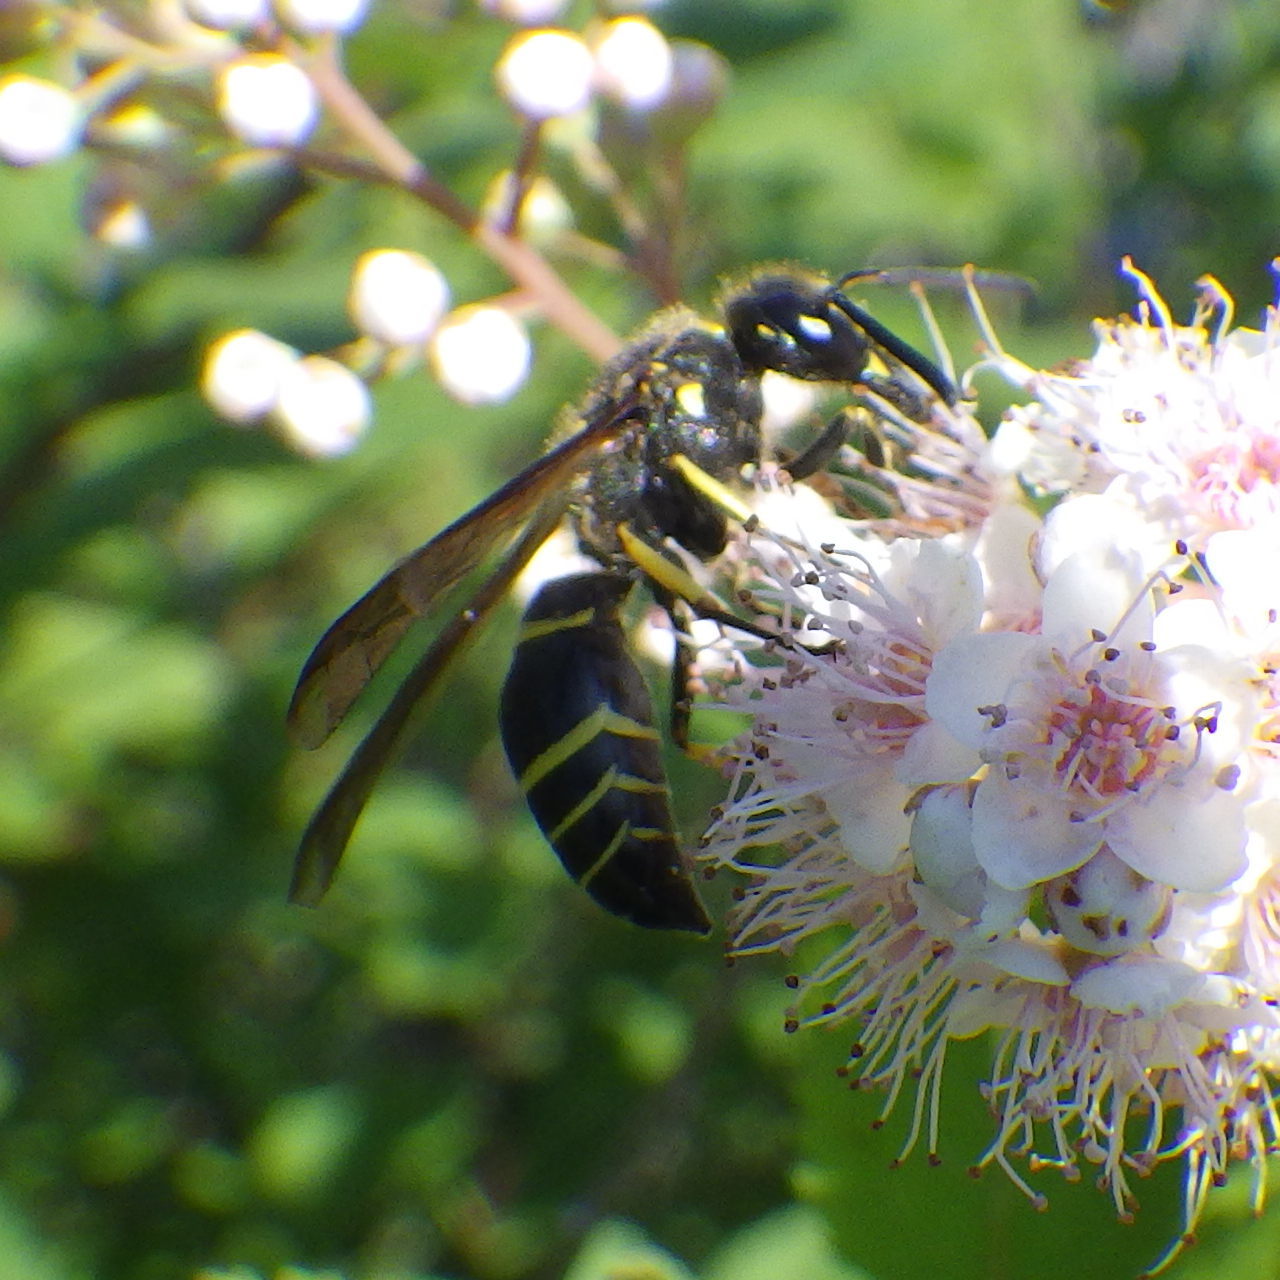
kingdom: Animalia
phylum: Arthropoda
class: Insecta
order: Hymenoptera
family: Vespidae
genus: Ancistrocerus
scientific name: Ancistrocerus
